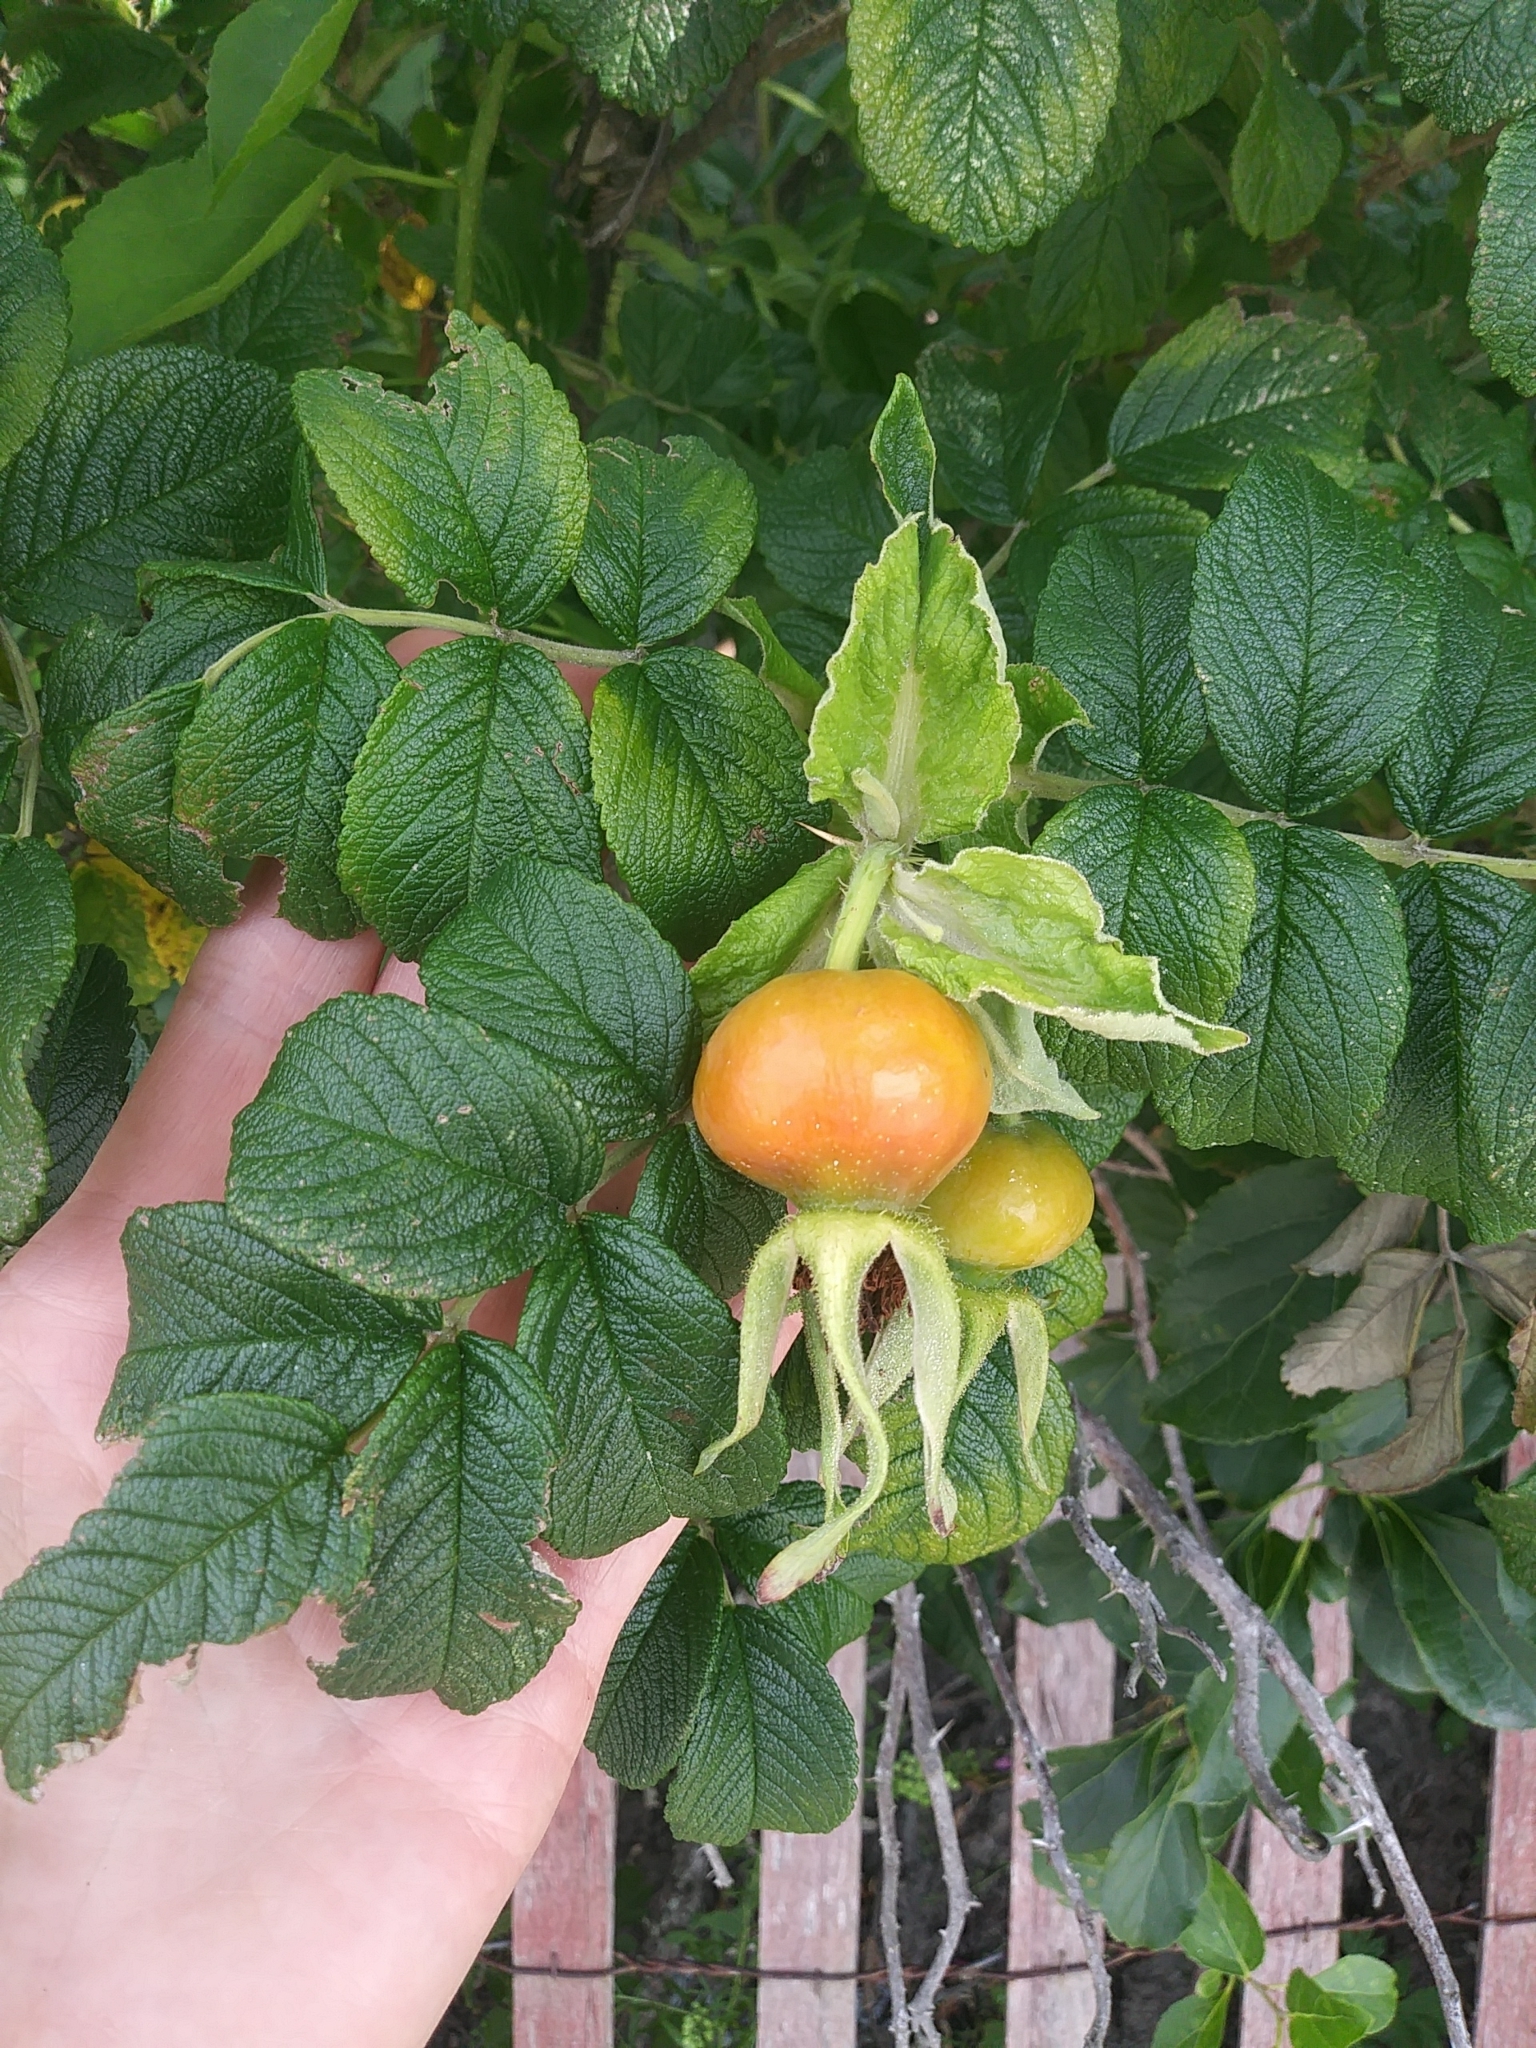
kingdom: Plantae
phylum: Tracheophyta
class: Magnoliopsida
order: Rosales
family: Rosaceae
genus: Rosa
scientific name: Rosa rugosa
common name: Japanese rose
